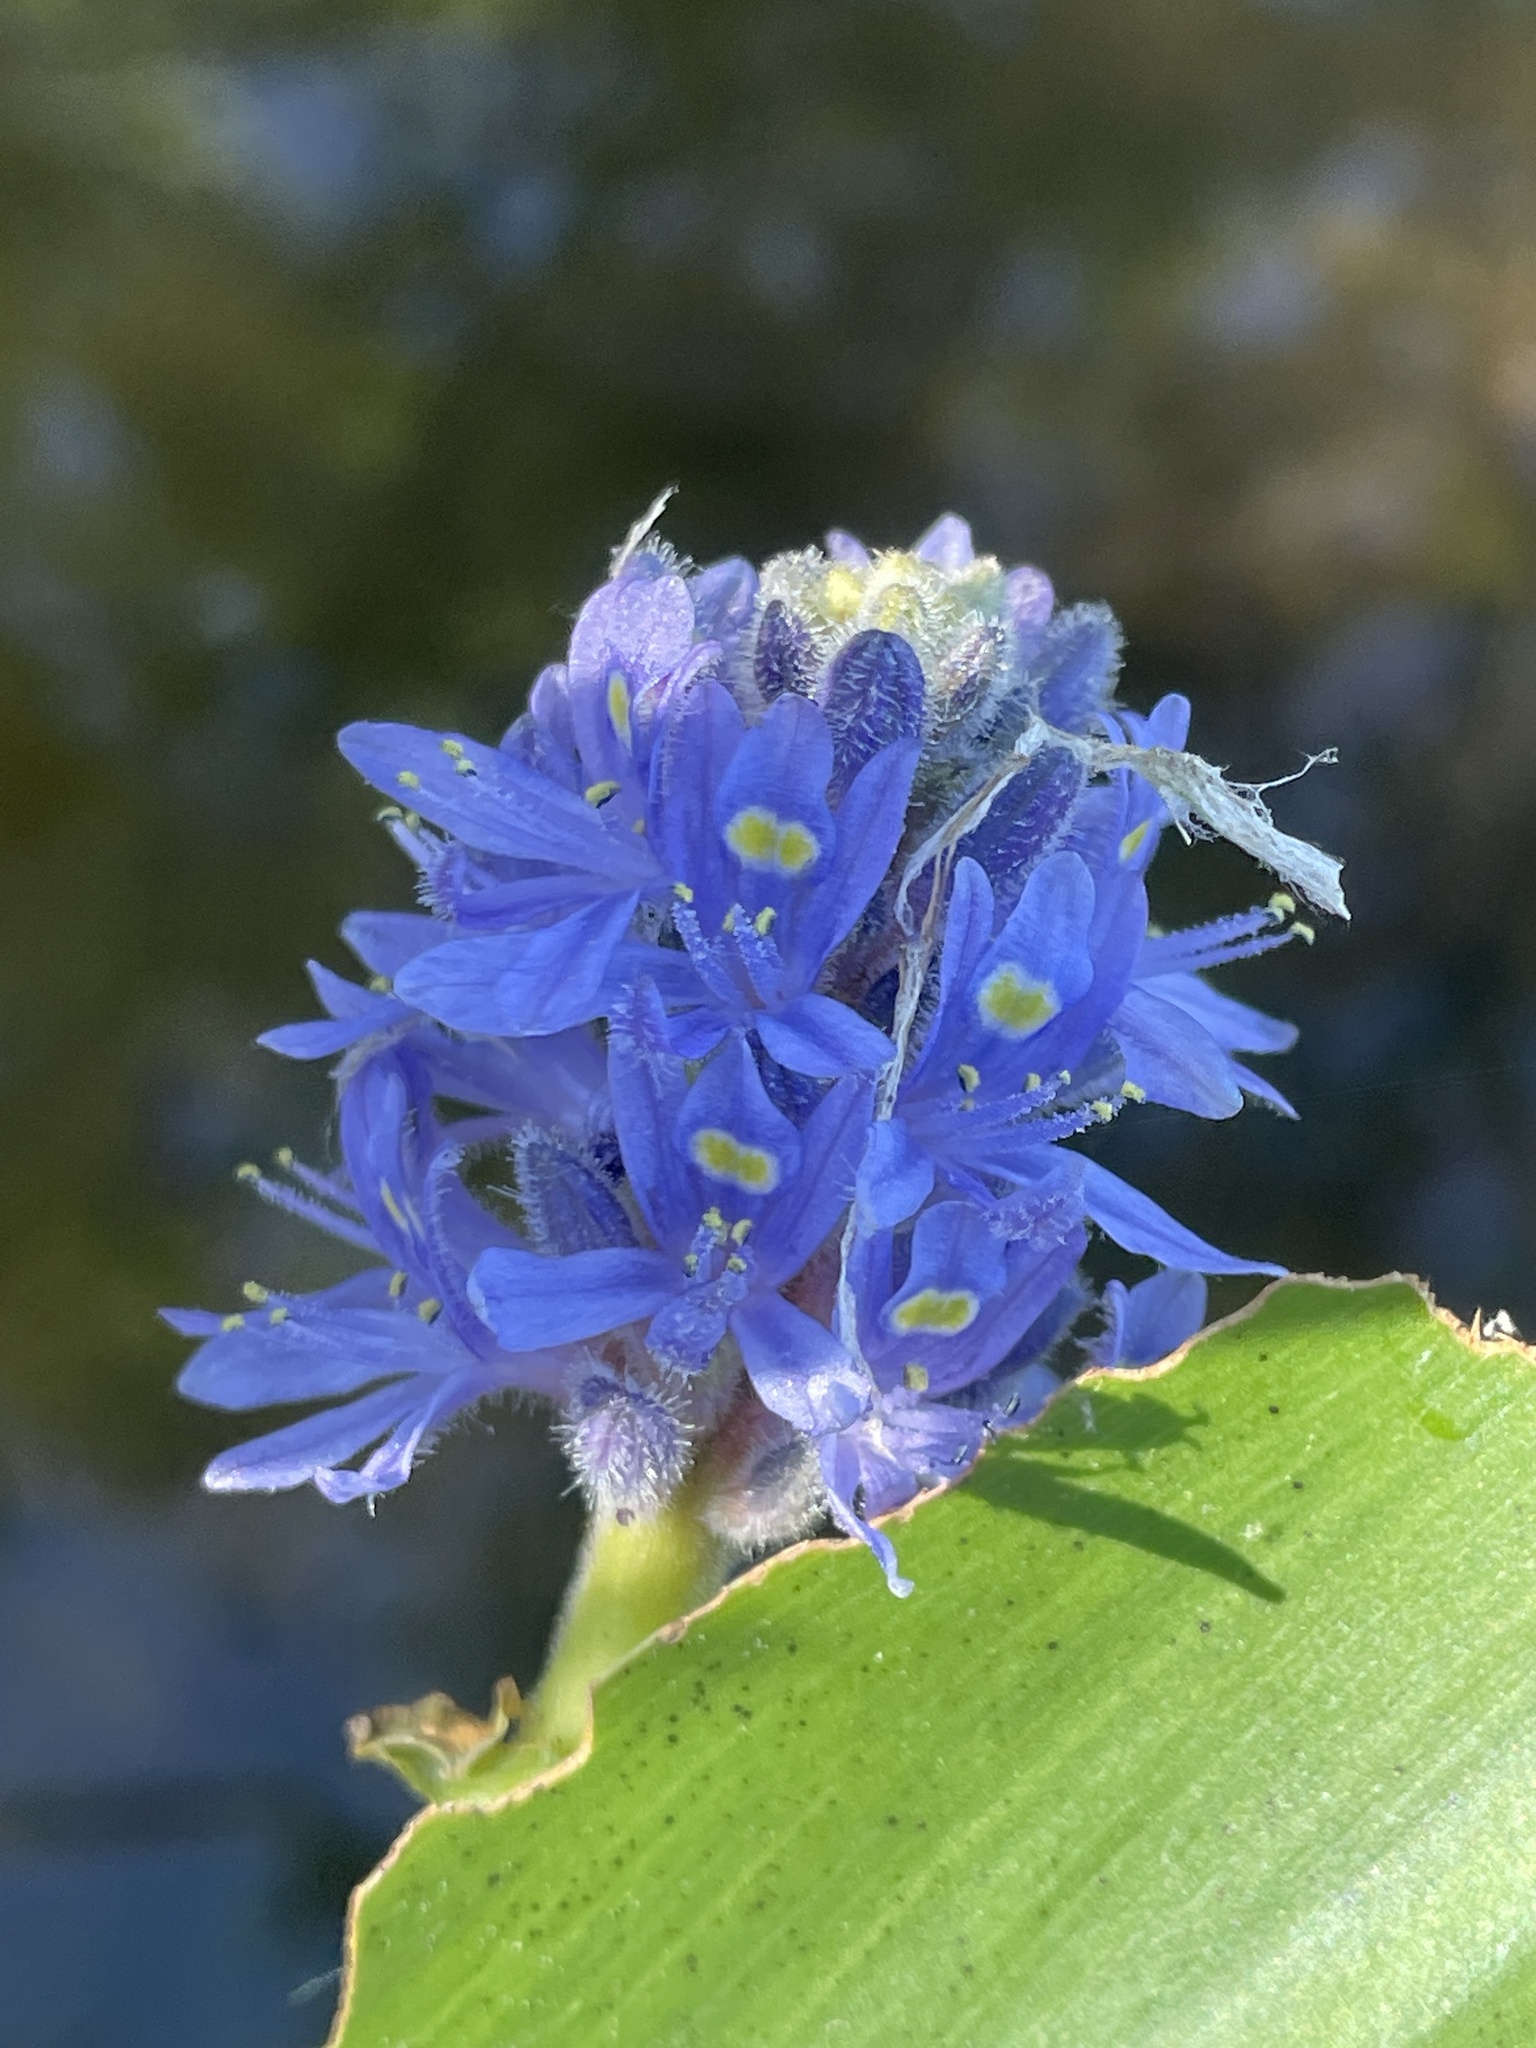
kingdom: Plantae
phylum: Tracheophyta
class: Liliopsida
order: Commelinales
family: Pontederiaceae
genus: Pontederia
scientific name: Pontederia cordata
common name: Pickerelweed
